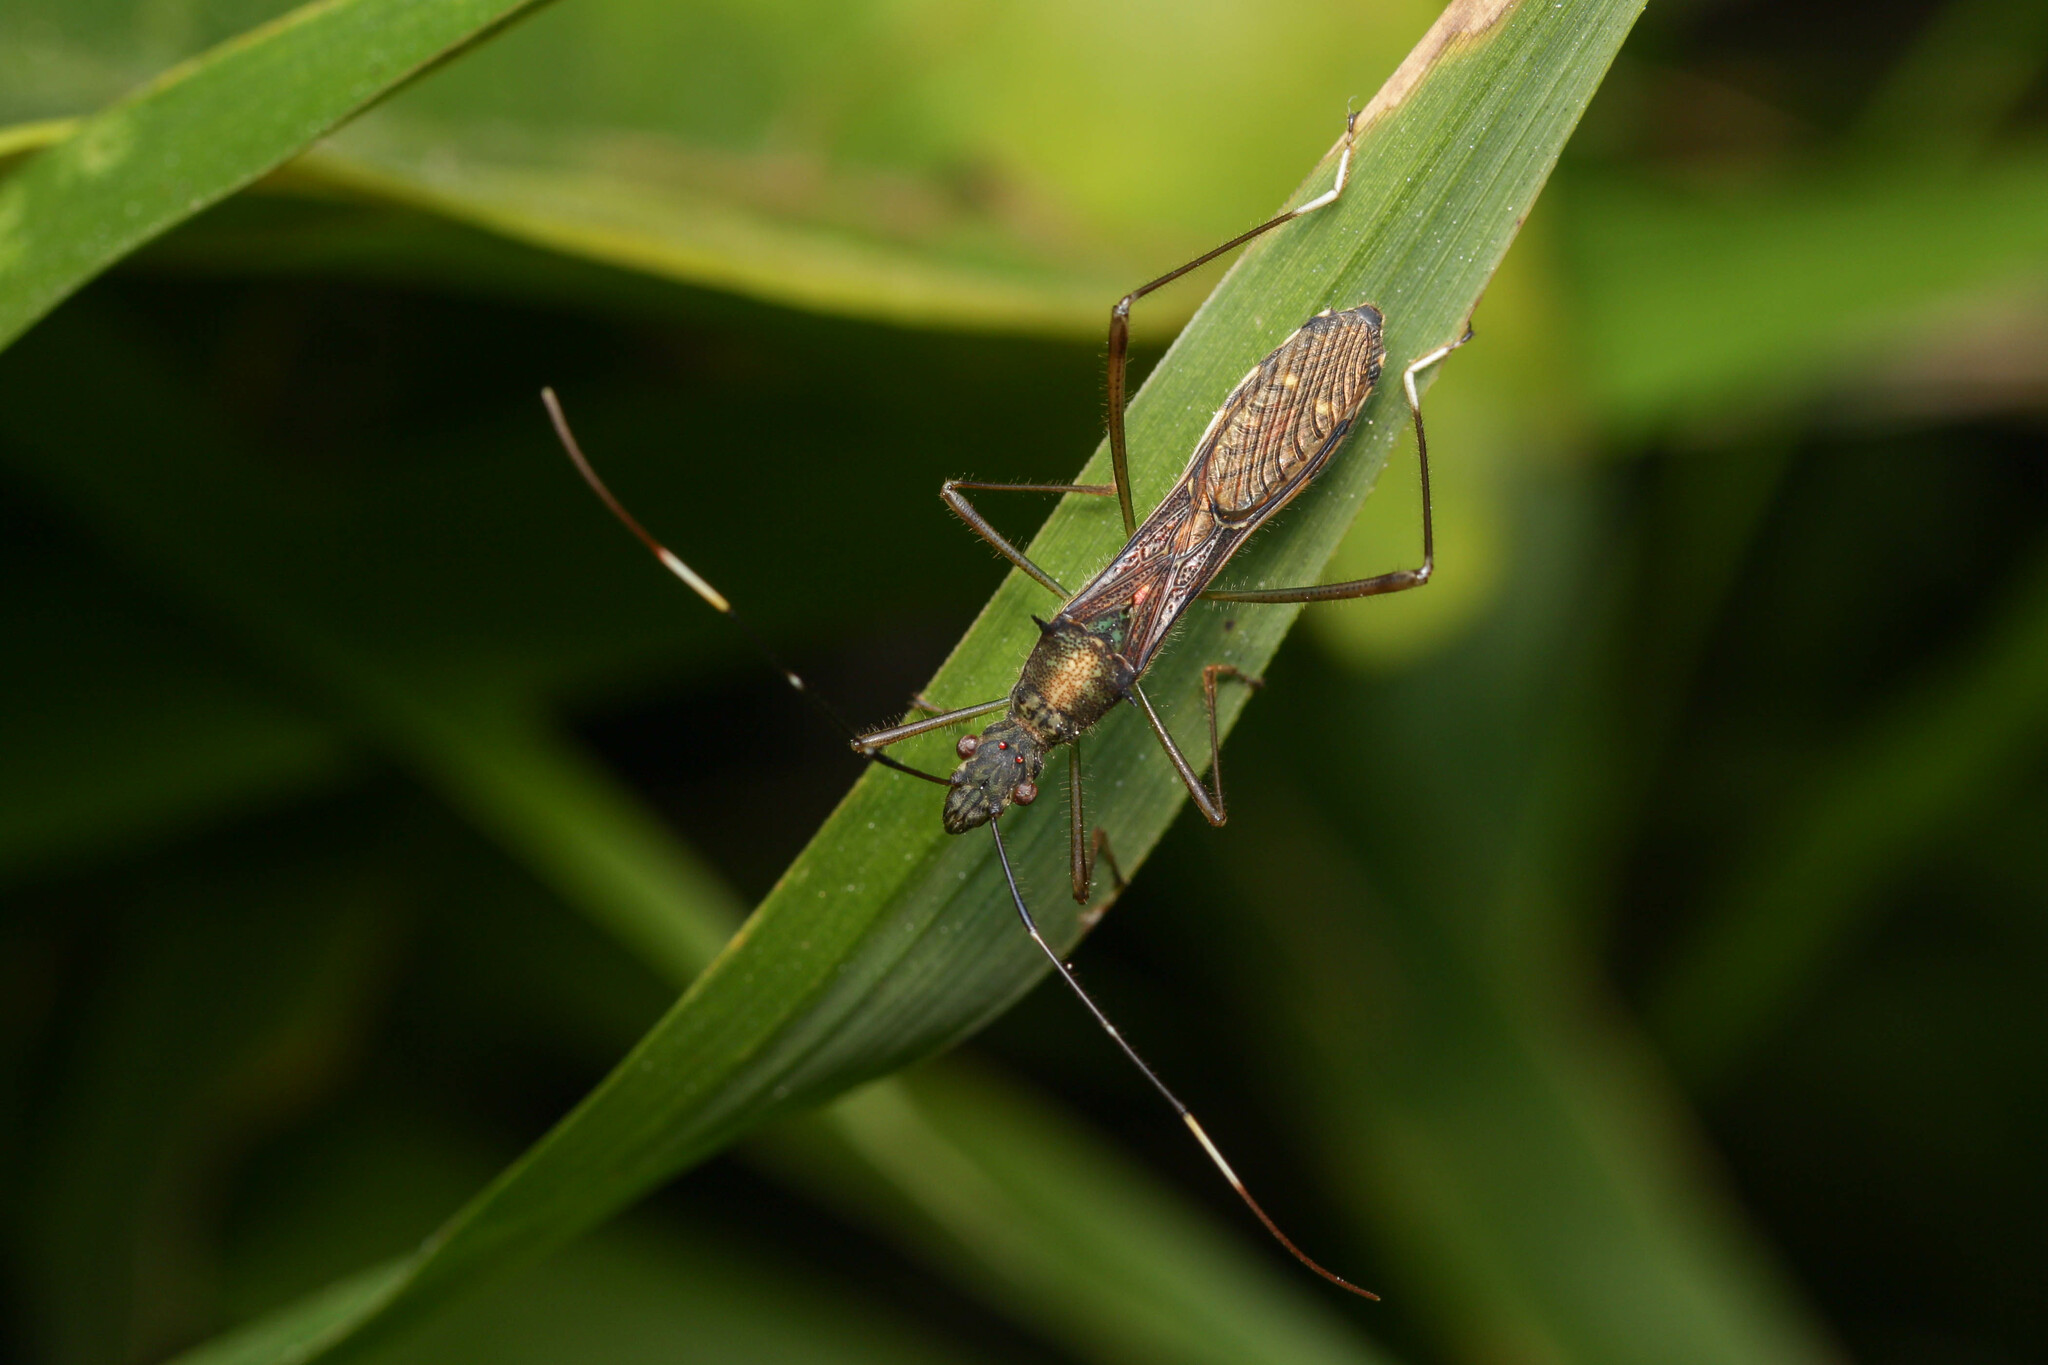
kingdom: Animalia
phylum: Arthropoda
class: Insecta
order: Hemiptera
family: Alydidae
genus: Marcius
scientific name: Marcius longirostris
